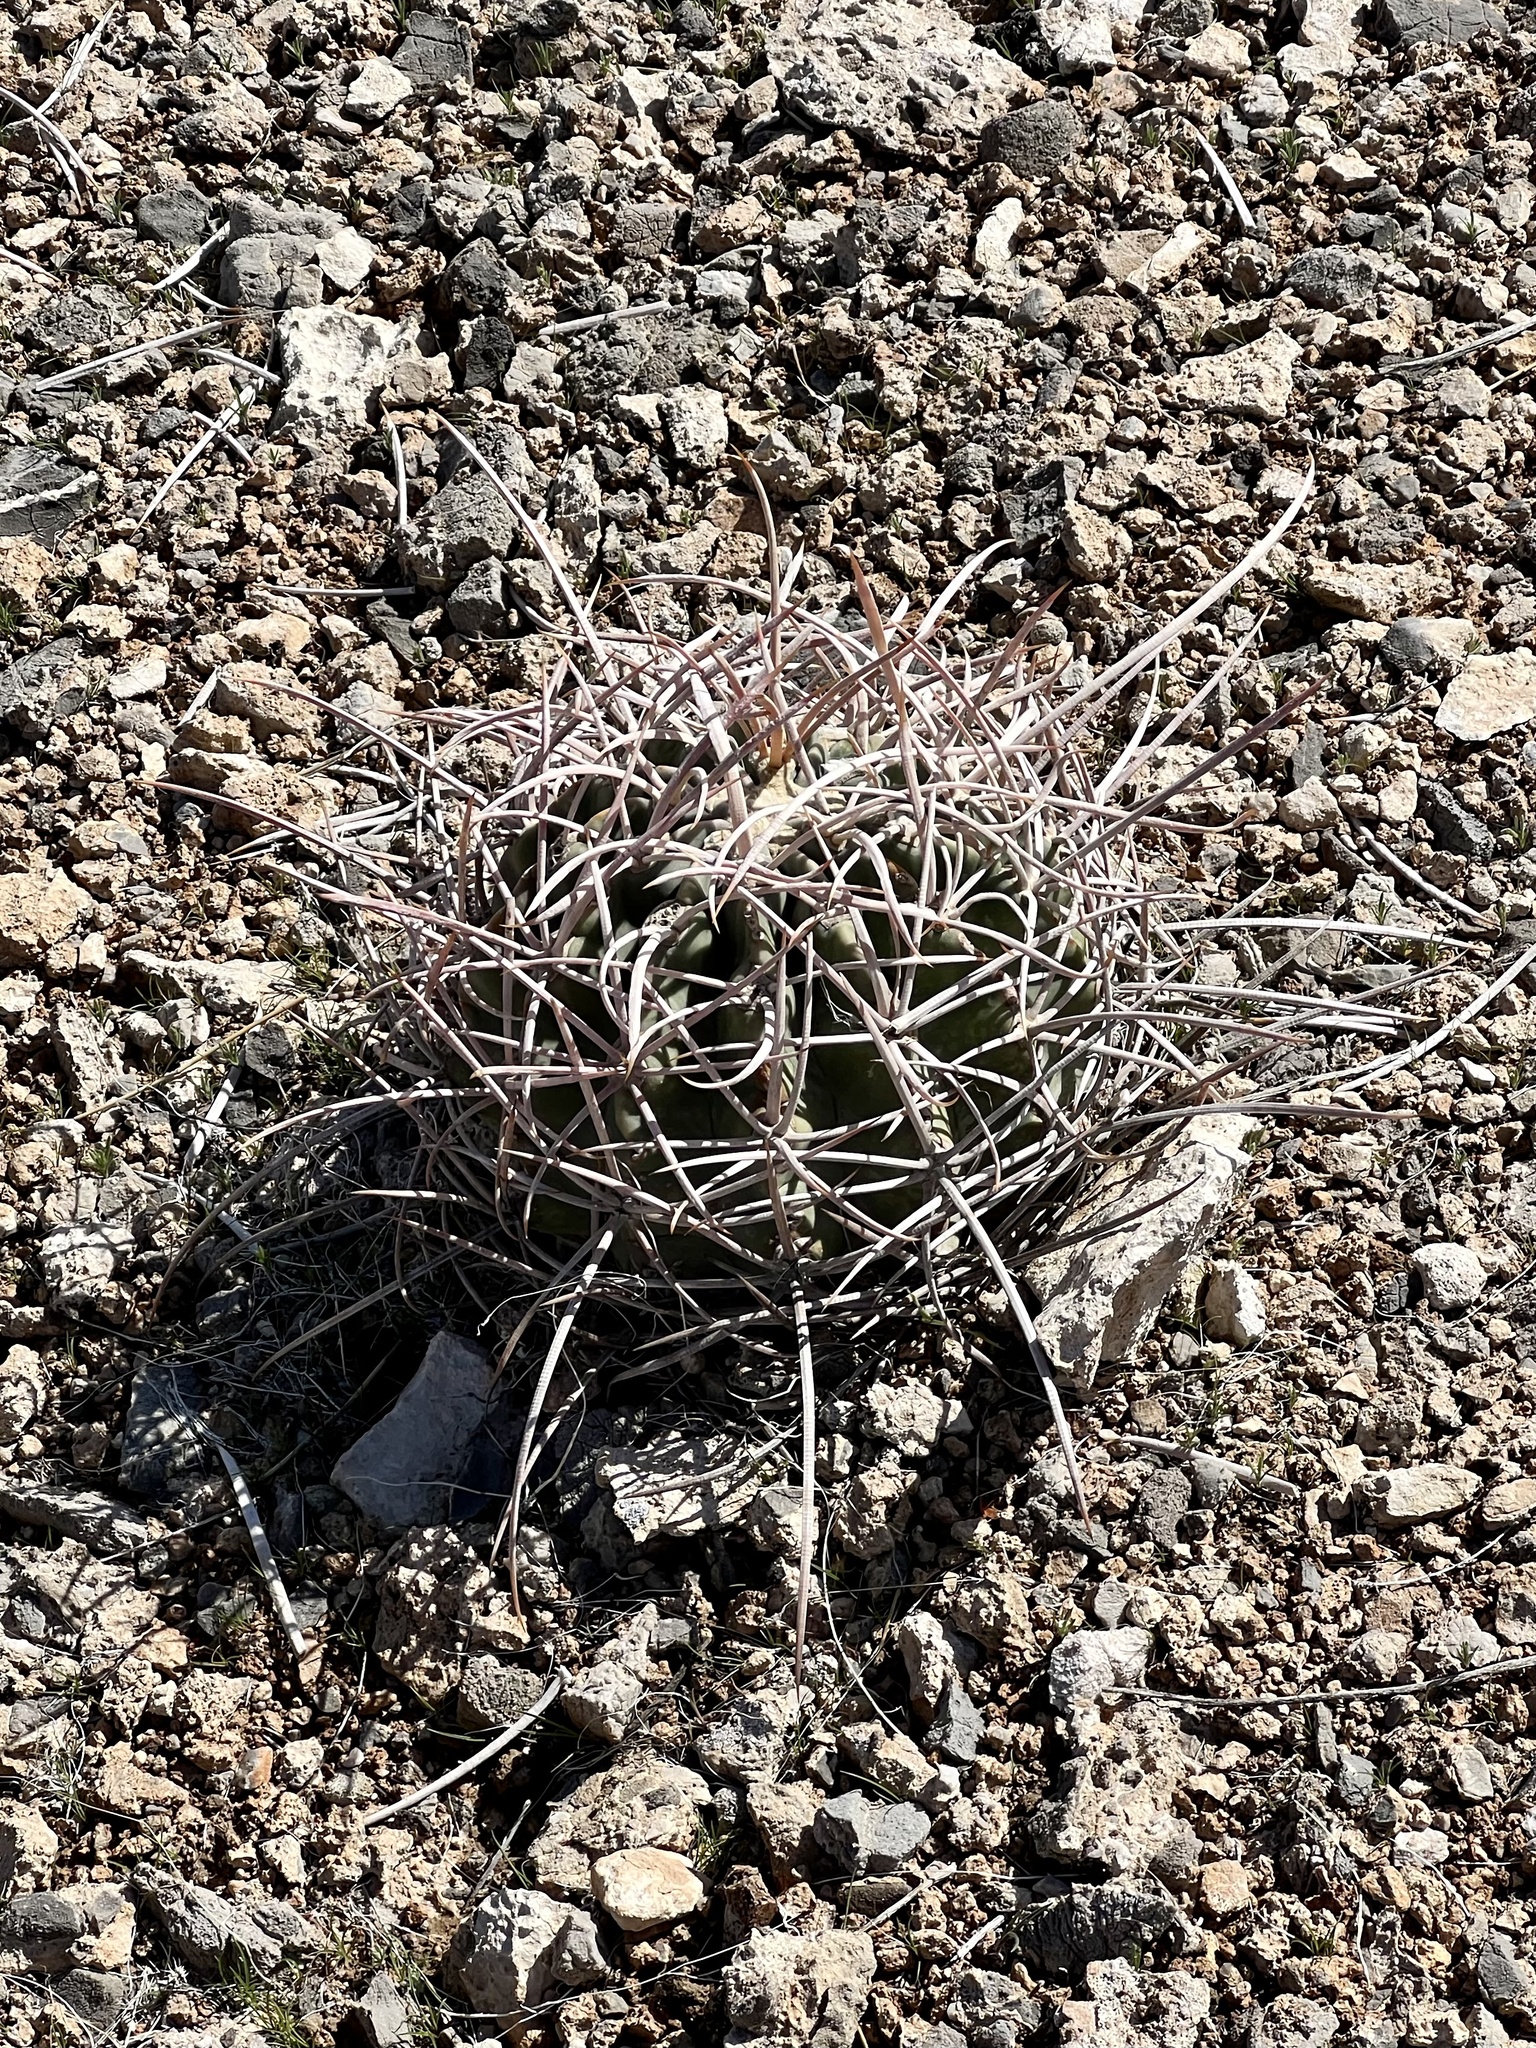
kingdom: Plantae
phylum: Tracheophyta
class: Magnoliopsida
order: Caryophyllales
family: Cactaceae
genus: Echinocactus
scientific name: Echinocactus polycephalus
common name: Cottontop cactus
